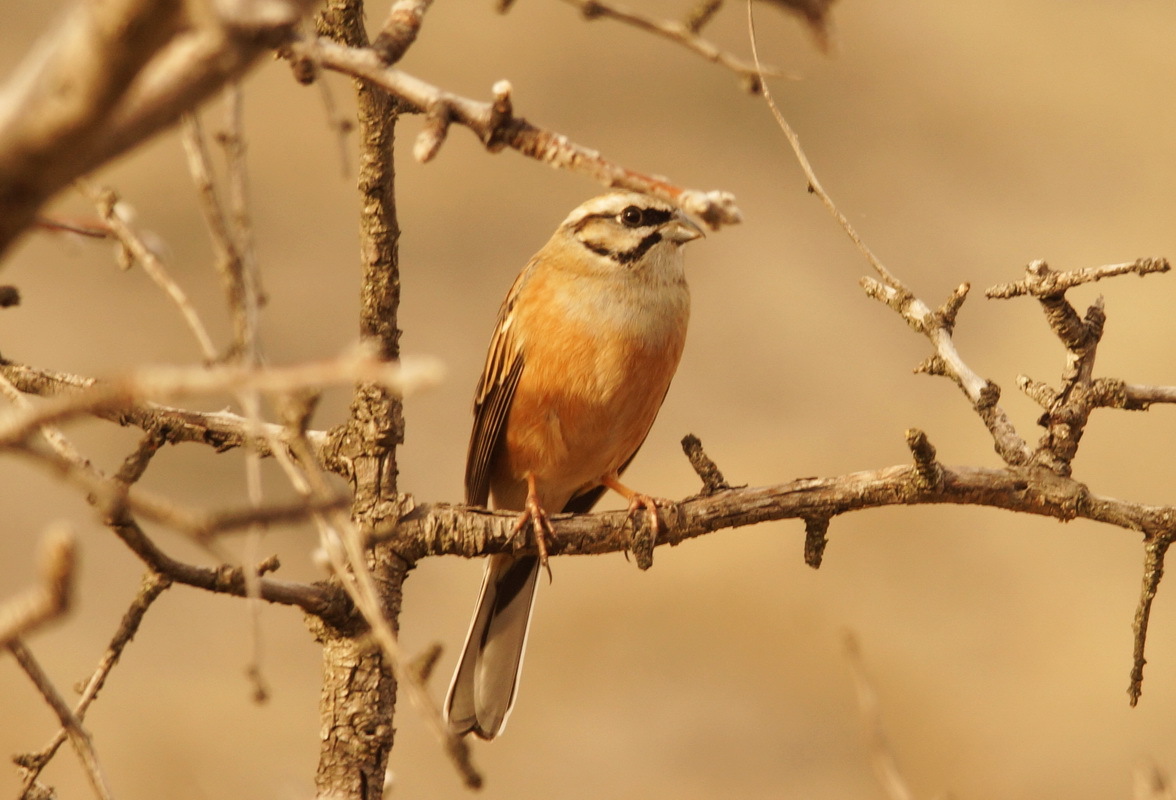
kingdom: Animalia
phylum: Chordata
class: Aves
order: Passeriformes
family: Emberizidae
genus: Emberiza
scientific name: Emberiza cia
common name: Rock bunting
